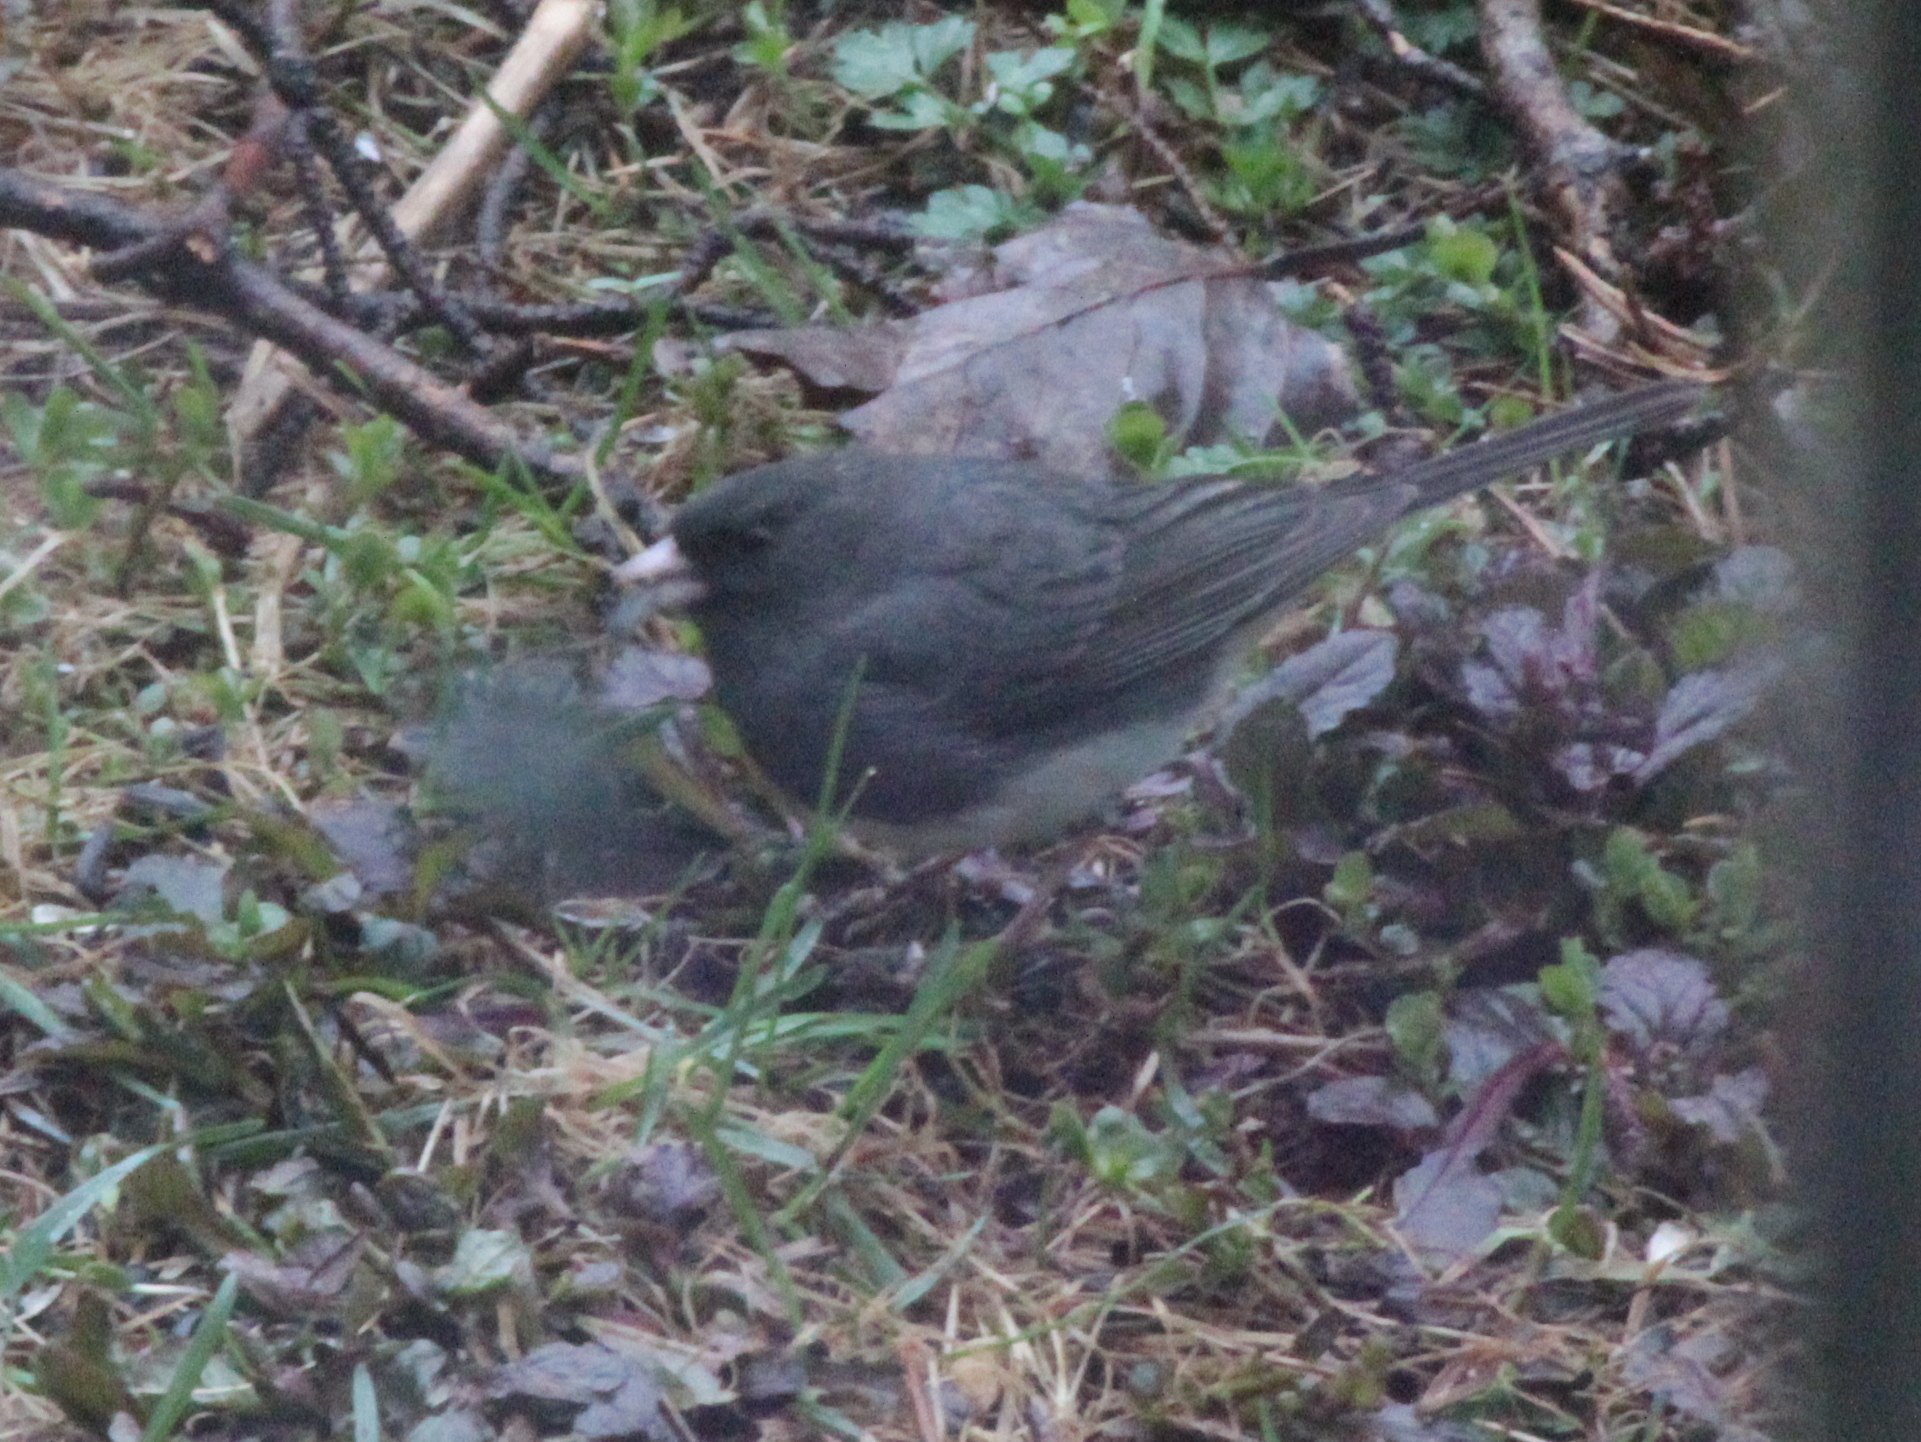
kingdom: Animalia
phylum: Chordata
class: Aves
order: Passeriformes
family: Passerellidae
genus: Junco
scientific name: Junco hyemalis
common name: Dark-eyed junco
